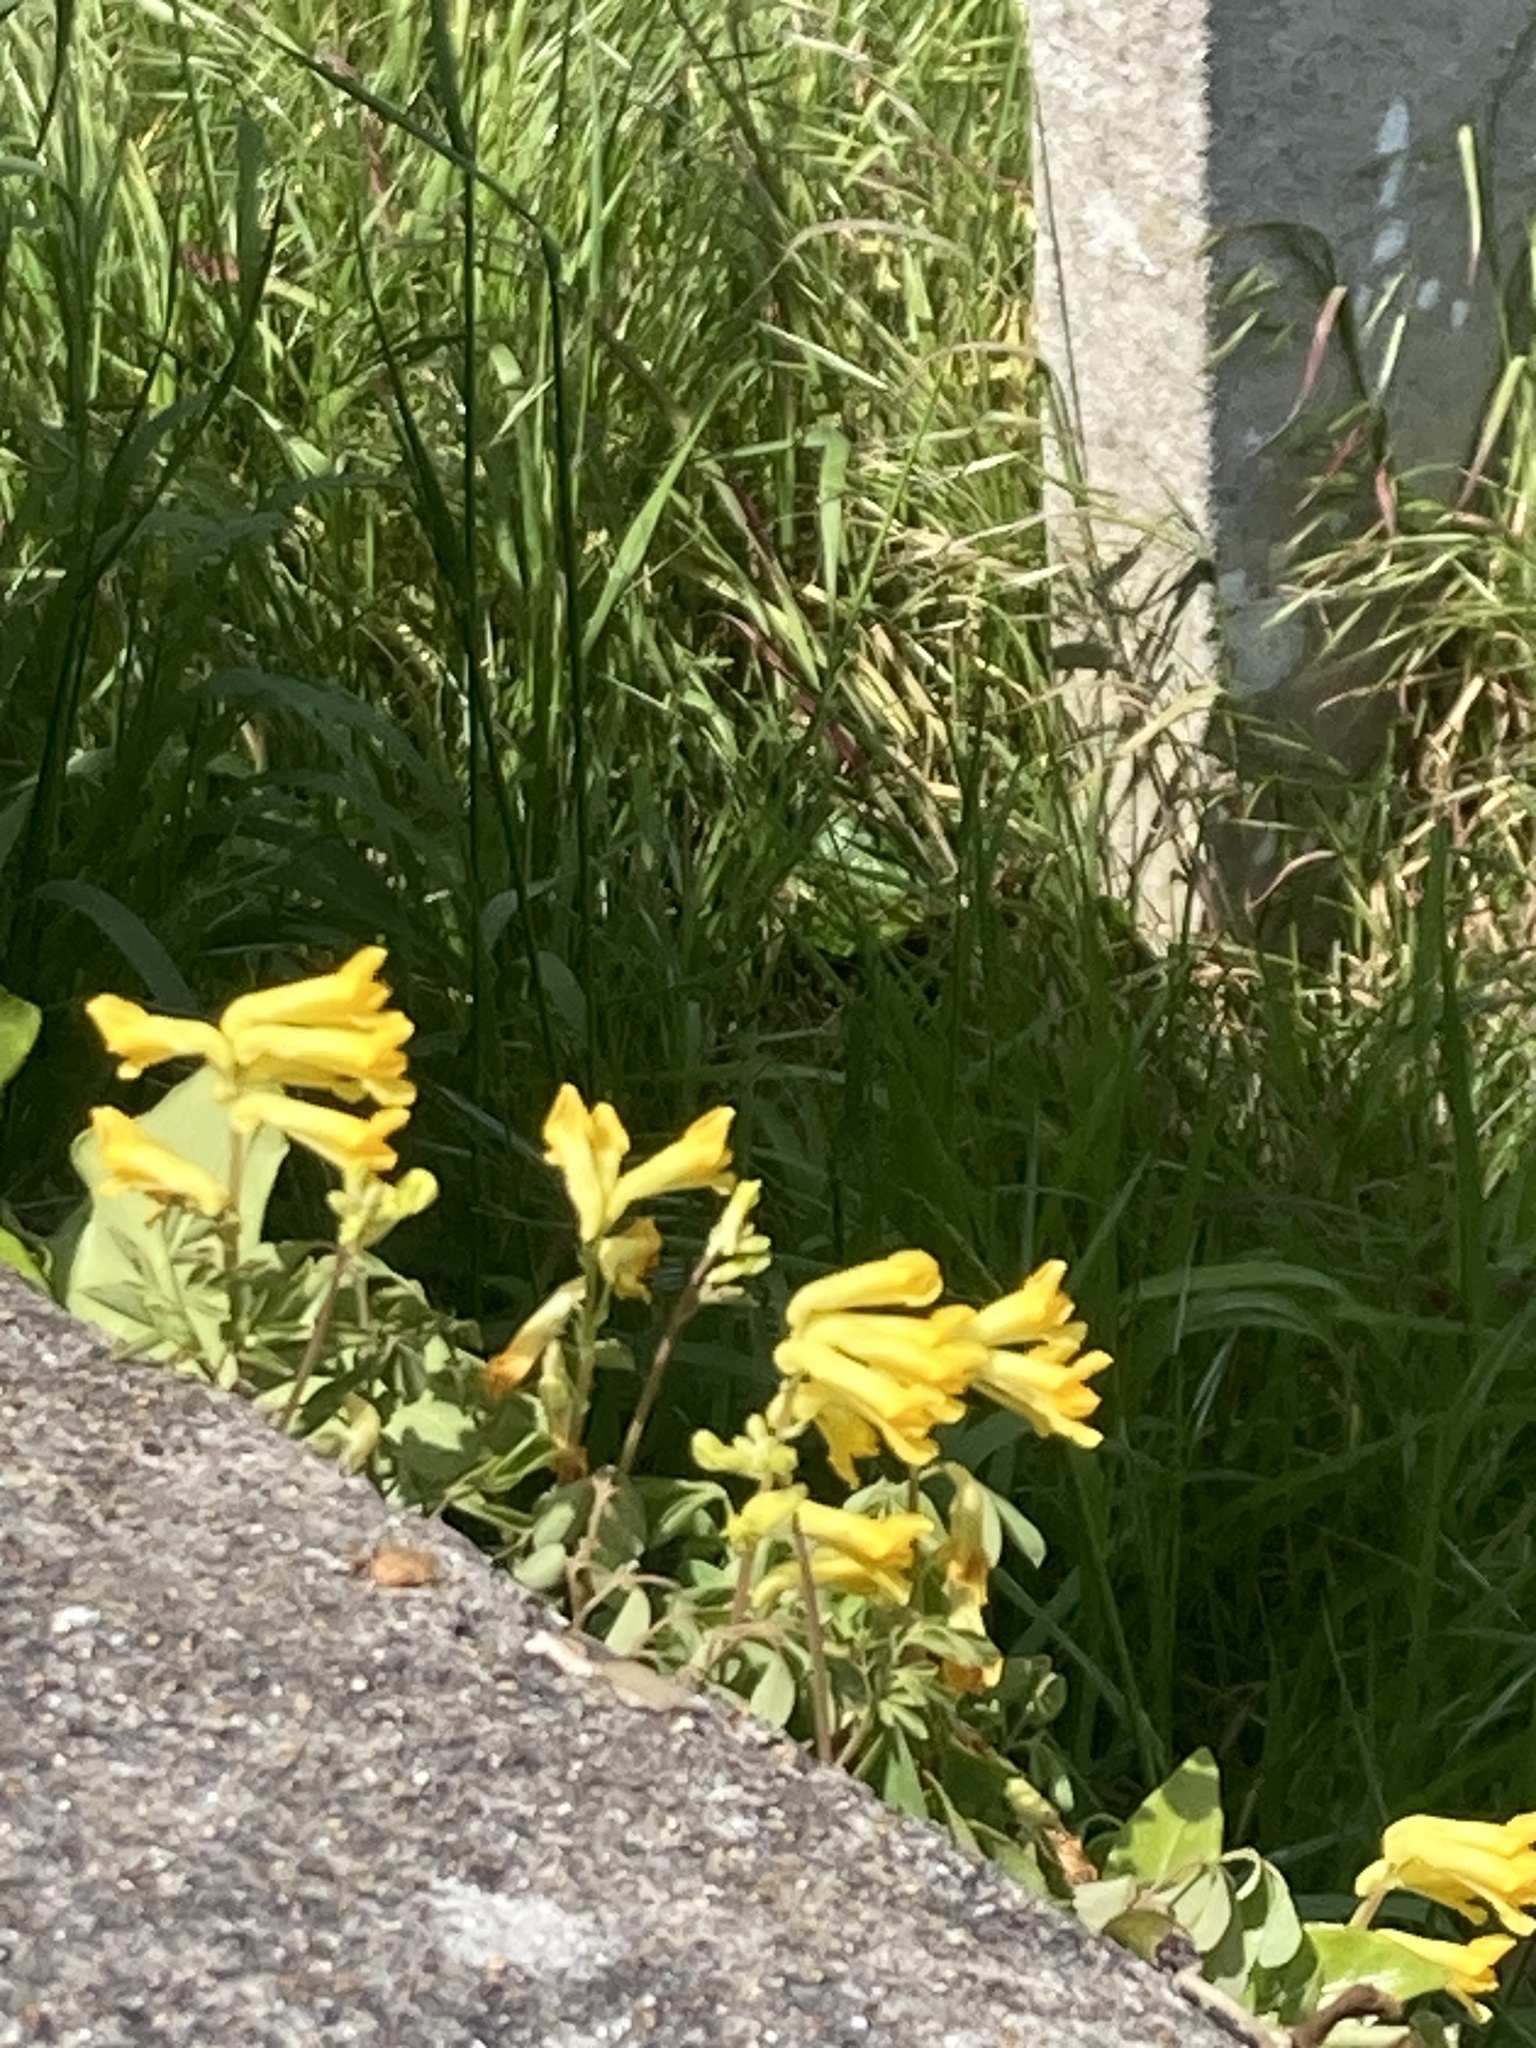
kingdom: Plantae
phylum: Tracheophyta
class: Magnoliopsida
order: Ranunculales
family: Papaveraceae
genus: Pseudofumaria
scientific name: Pseudofumaria lutea
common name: Yellow corydalis
